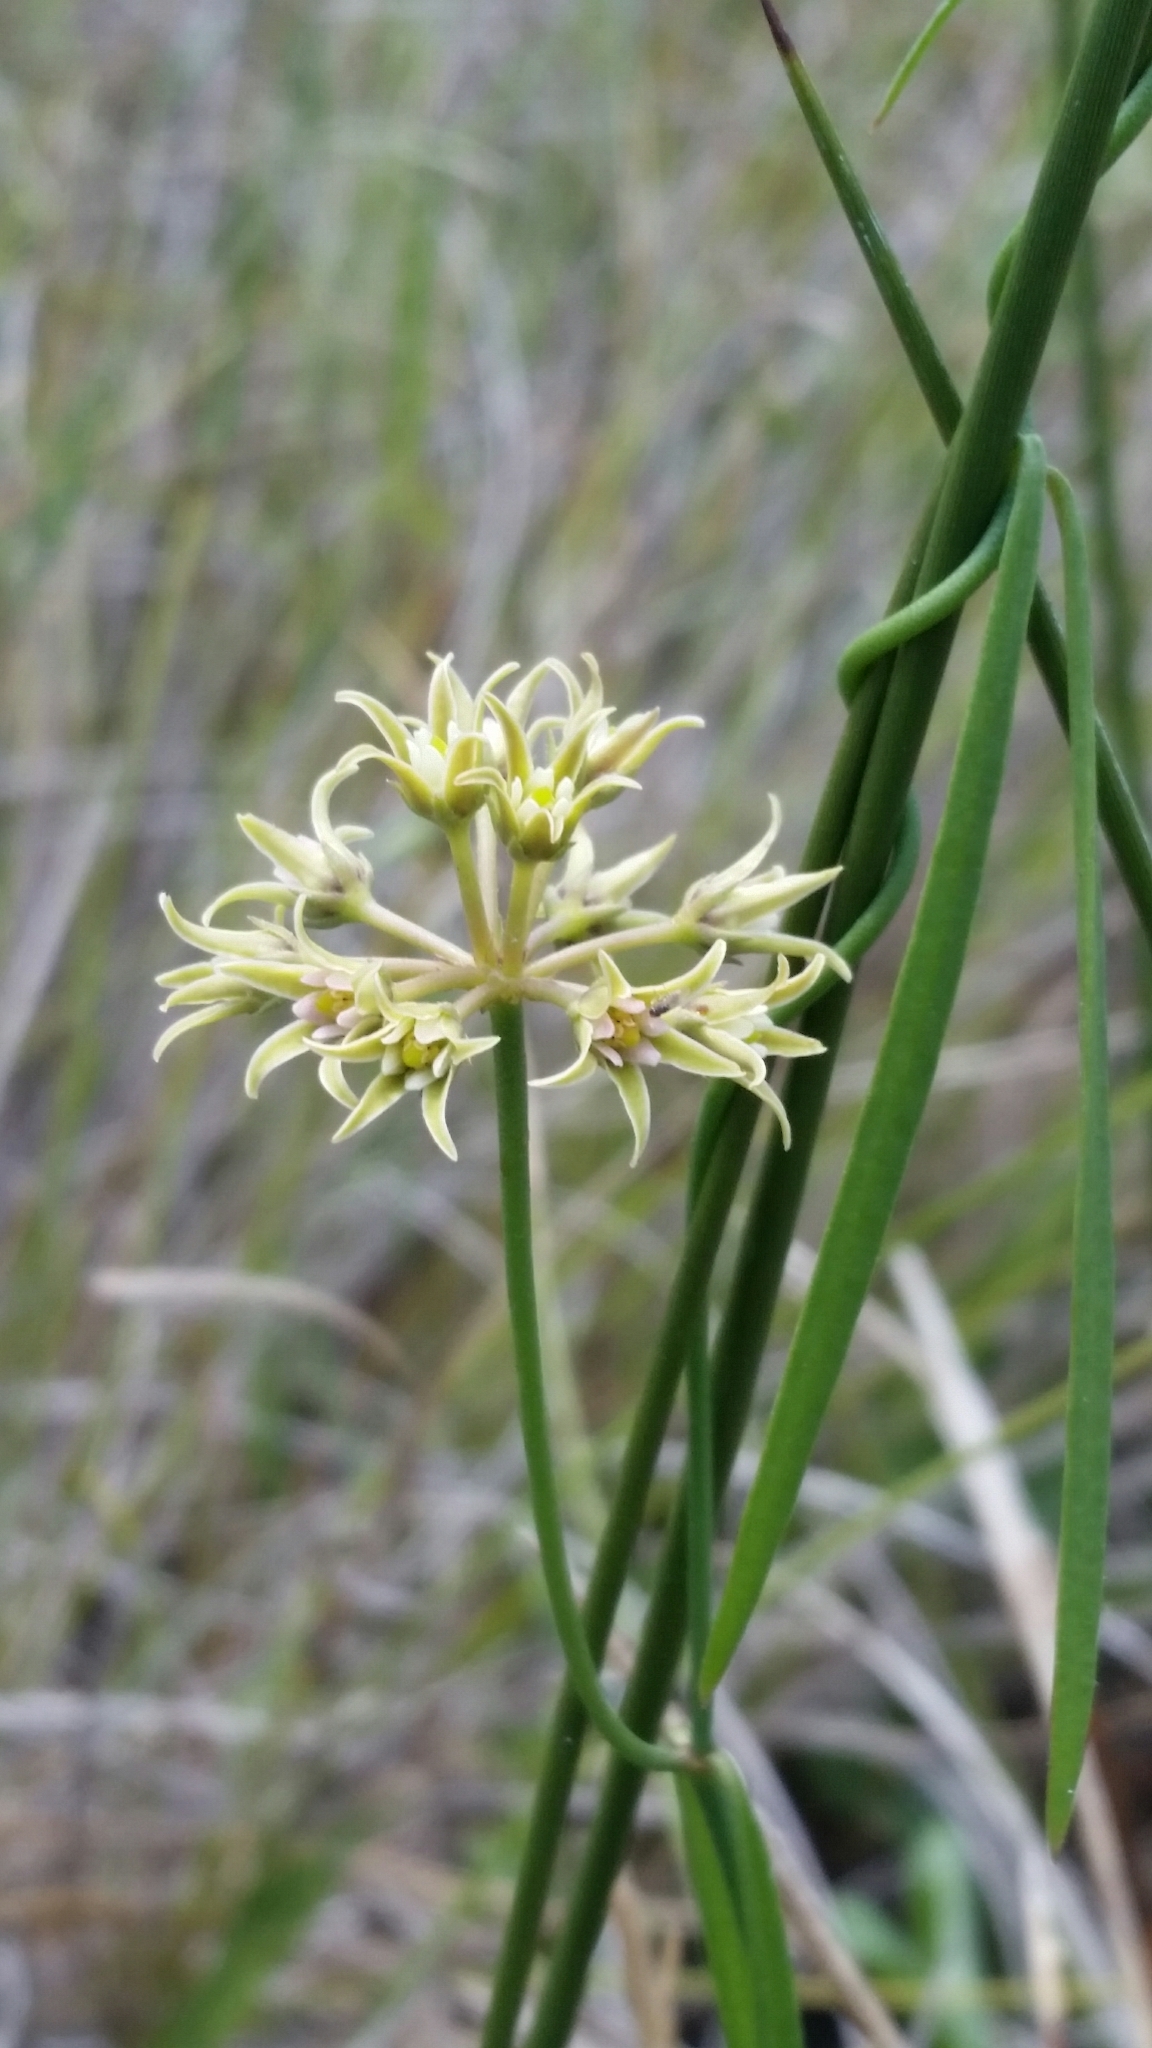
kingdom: Plantae
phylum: Tracheophyta
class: Magnoliopsida
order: Gentianales
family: Apocynaceae
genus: Pattalias
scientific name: Pattalias
